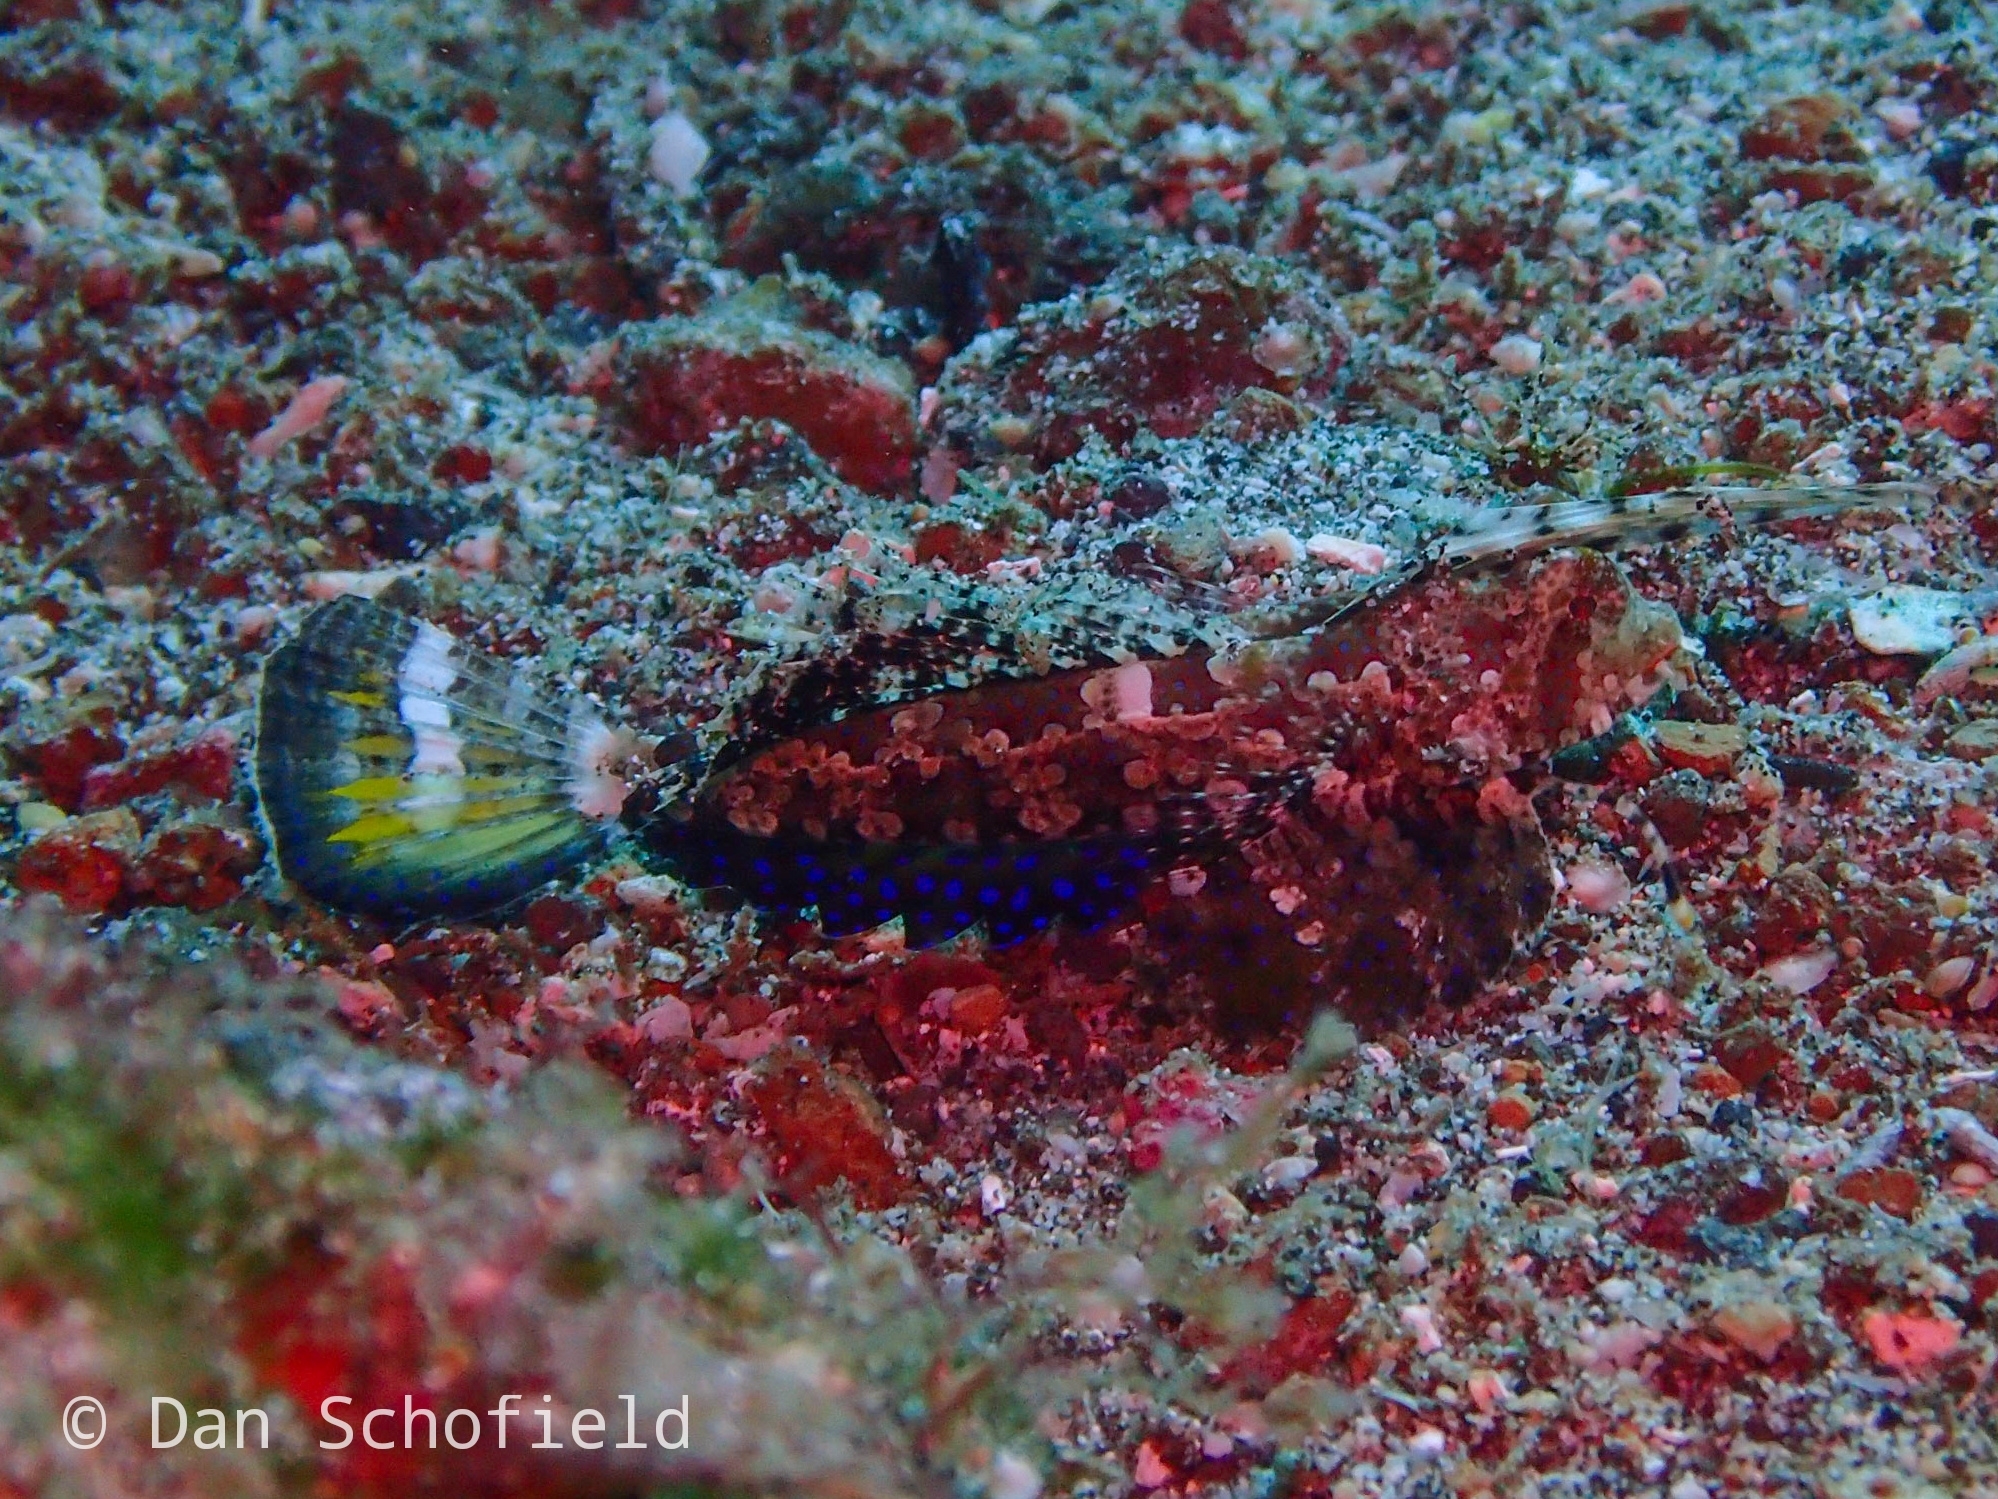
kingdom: Animalia
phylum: Chordata
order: Perciformes
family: Callionymidae
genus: Dactylopus
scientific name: Dactylopus kuiteri
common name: Kuiter's dragonet
